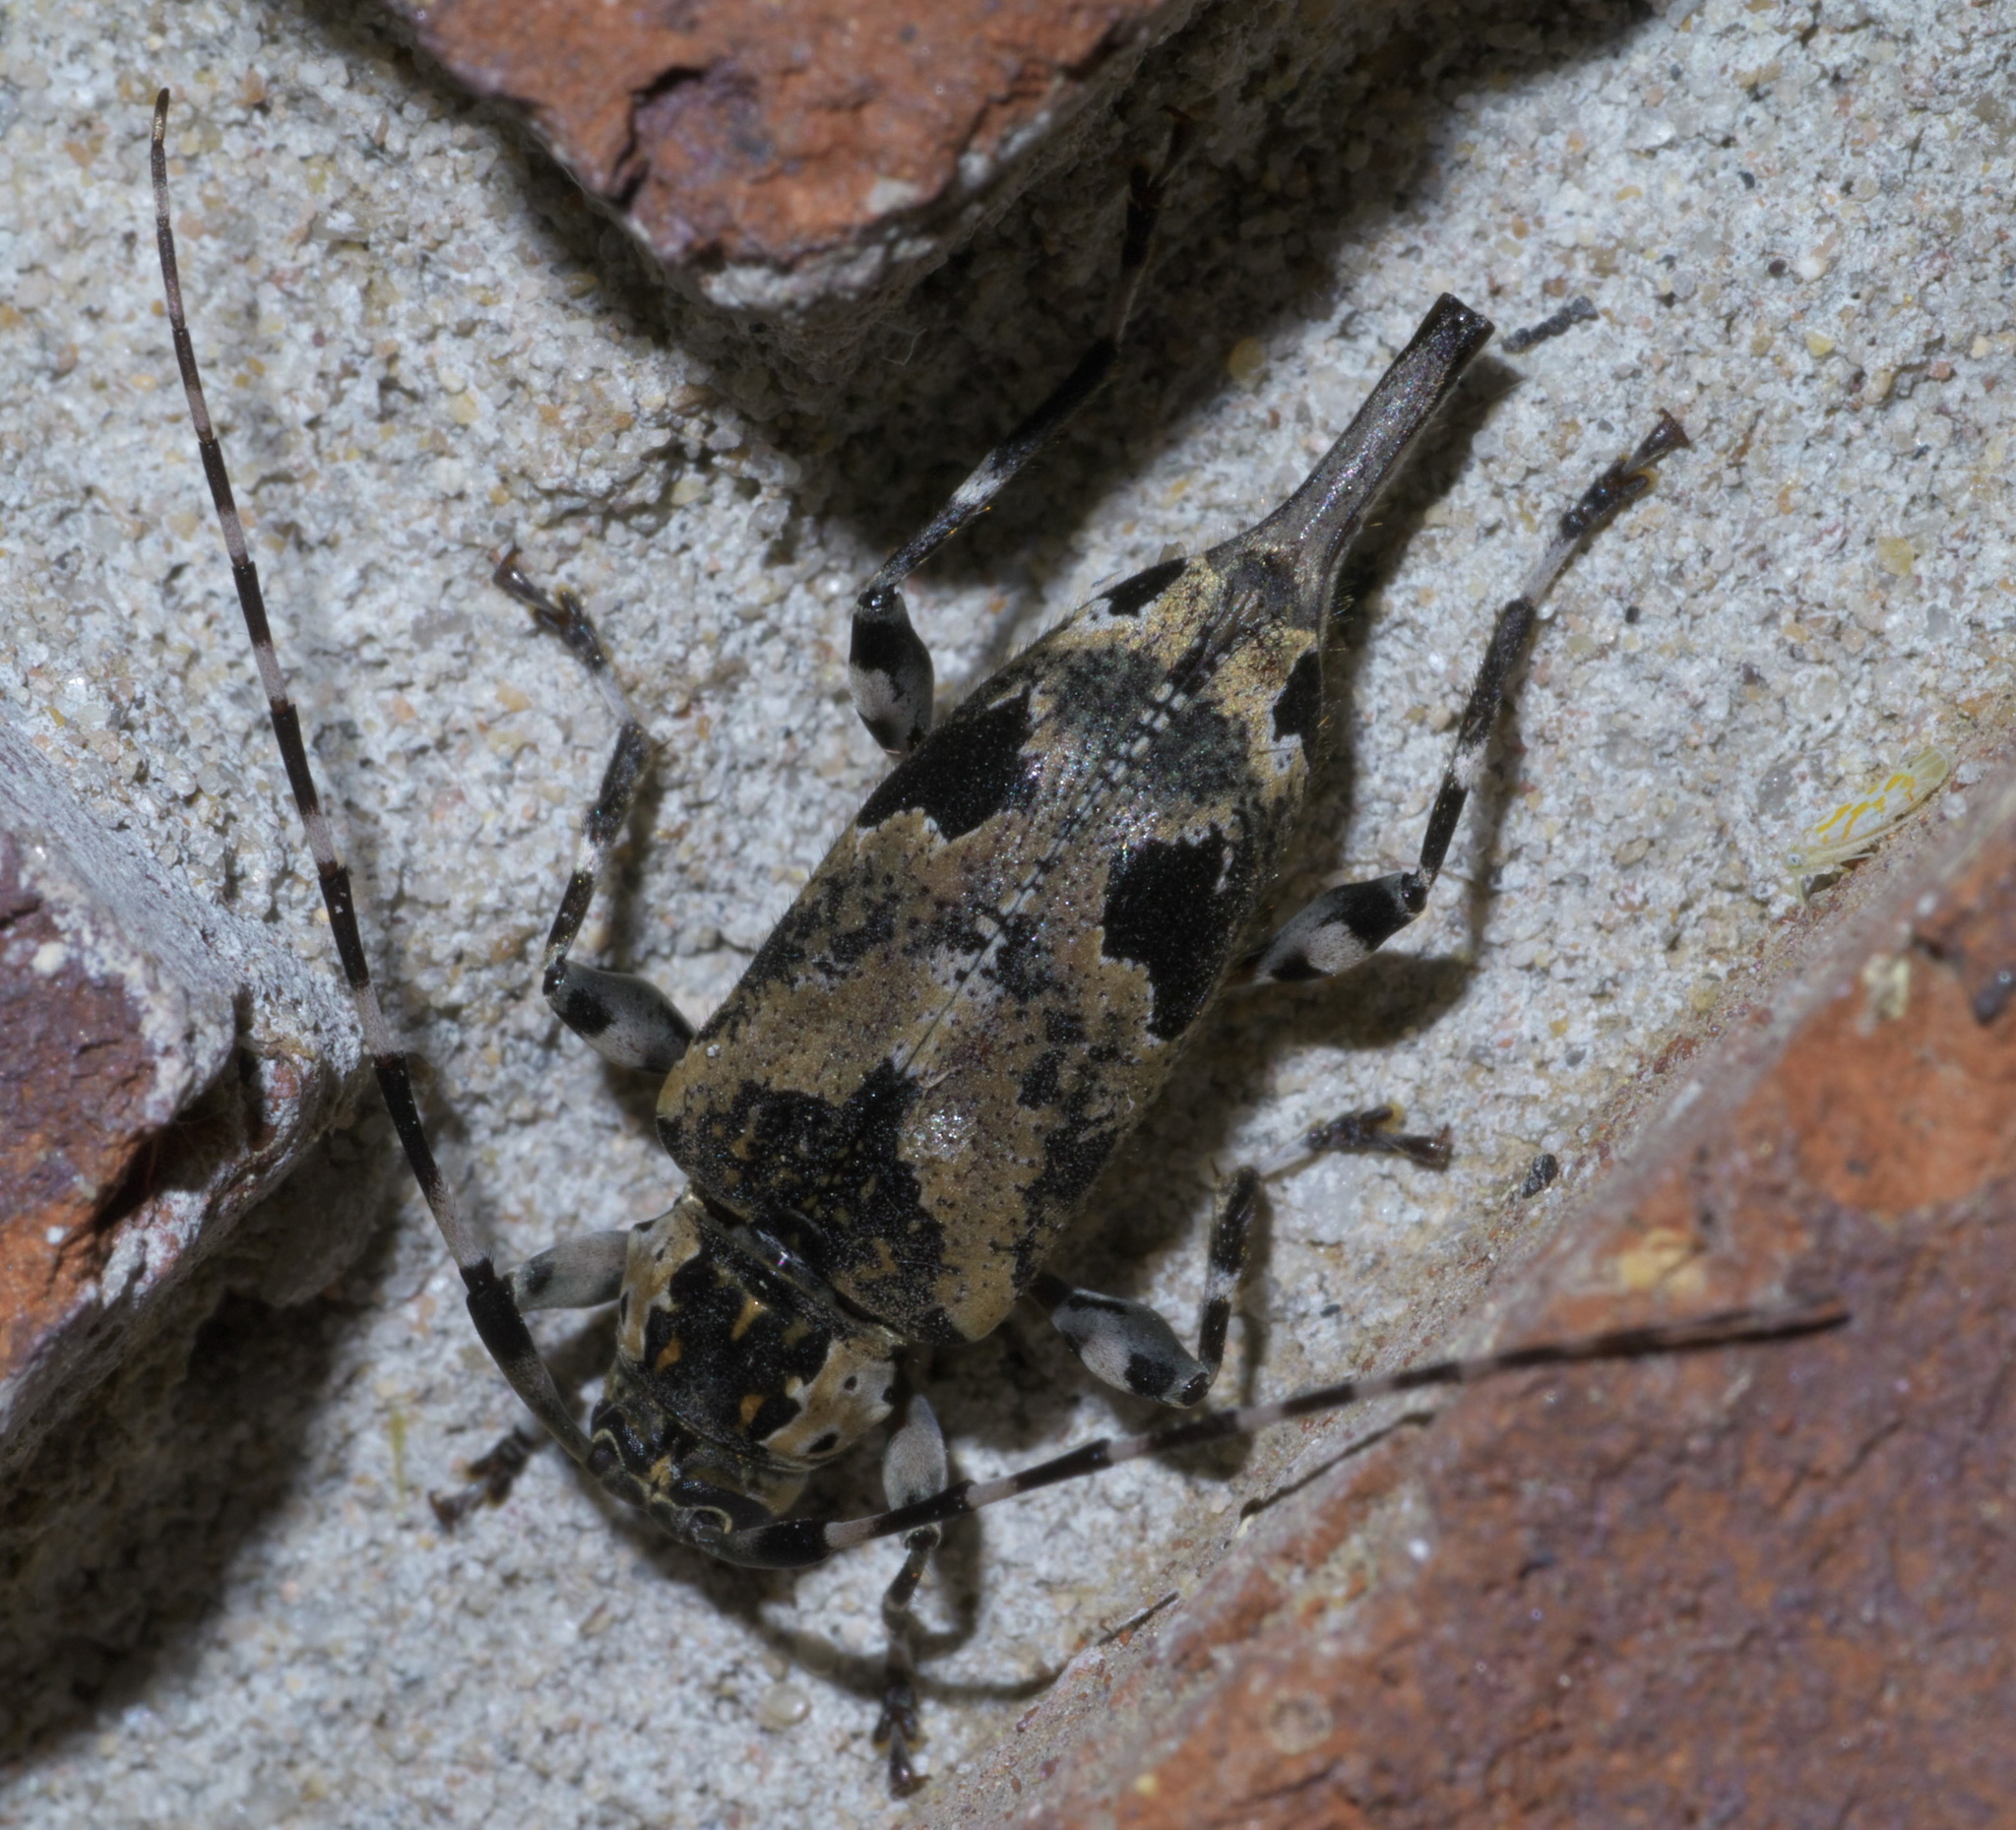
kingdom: Animalia
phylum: Arthropoda
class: Insecta
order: Coleoptera
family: Cerambycidae
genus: Graphisurus
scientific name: Graphisurus triangulifer
